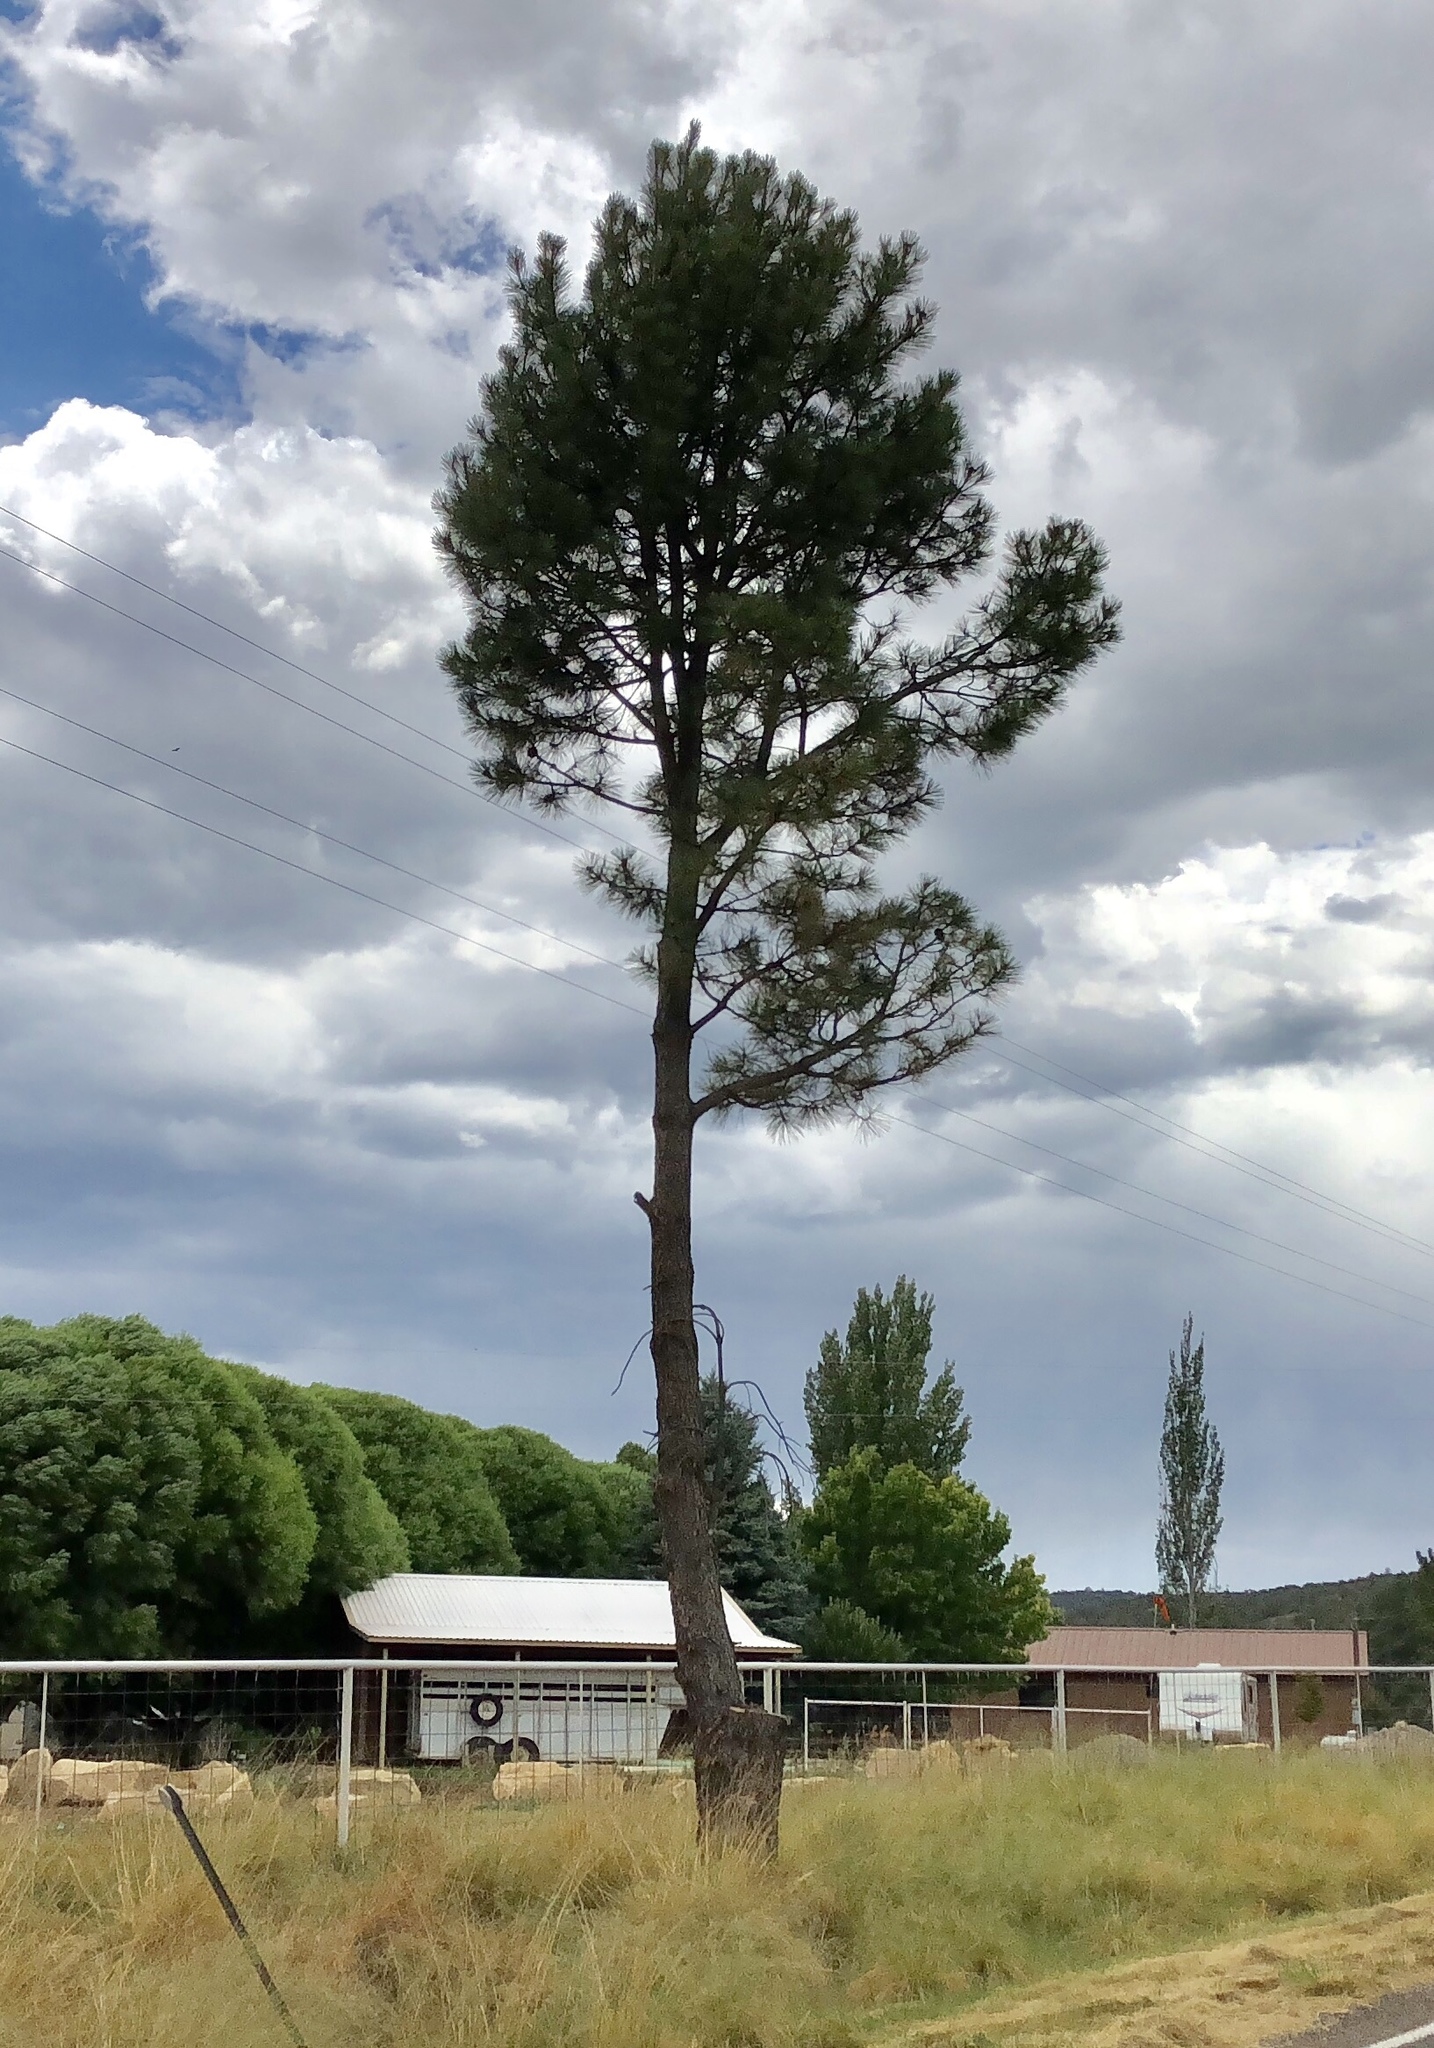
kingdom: Plantae
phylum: Tracheophyta
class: Pinopsida
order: Pinales
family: Pinaceae
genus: Pinus
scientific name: Pinus ponderosa
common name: Western yellow-pine
